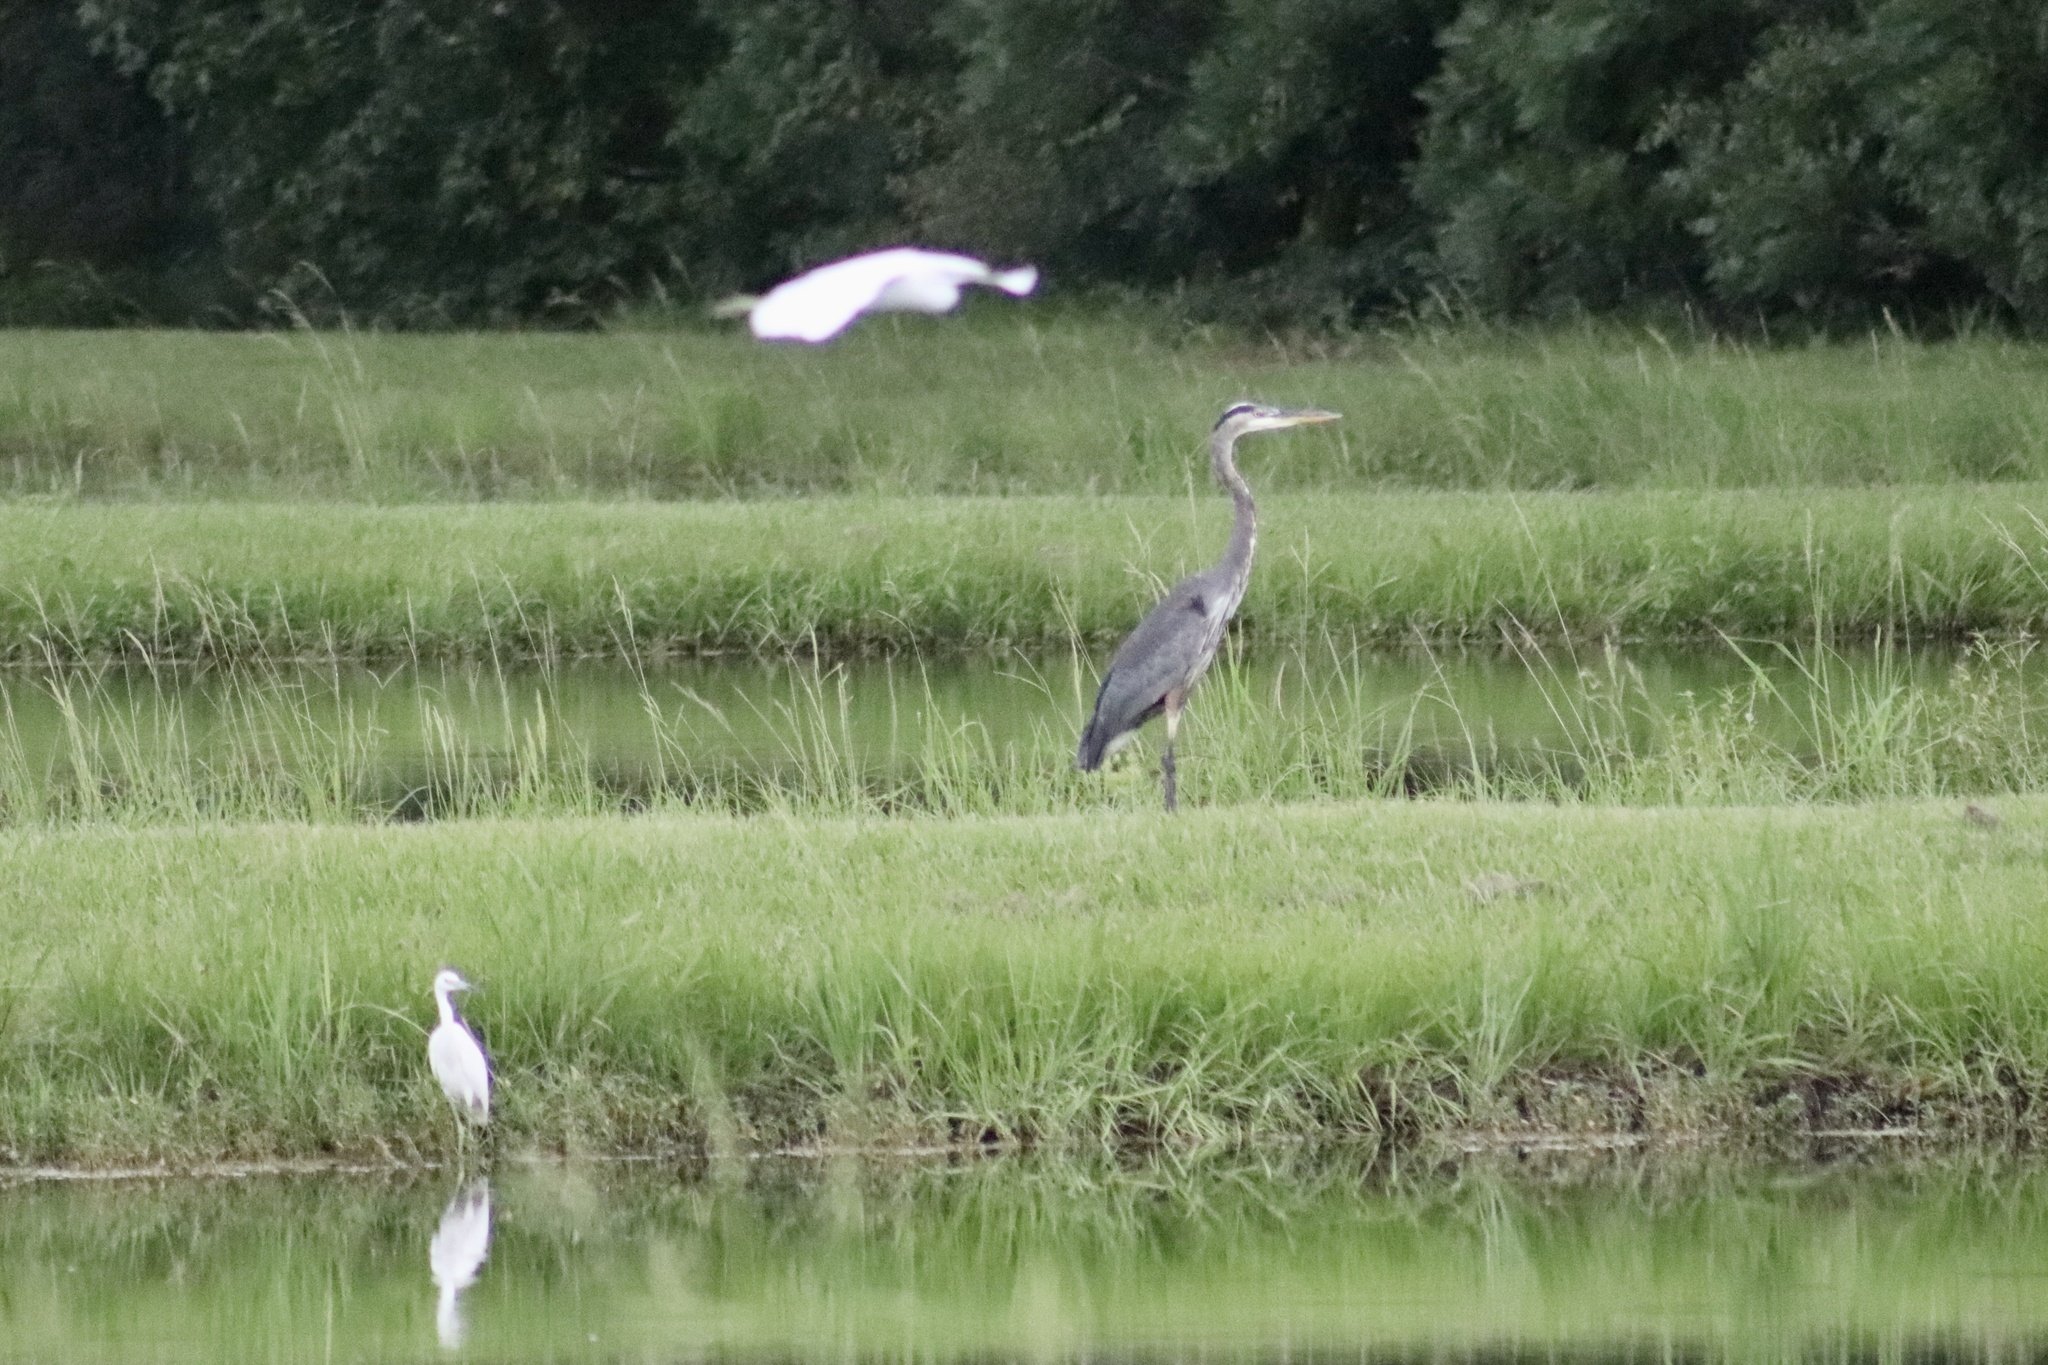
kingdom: Animalia
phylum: Chordata
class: Aves
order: Pelecaniformes
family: Ardeidae
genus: Ardea
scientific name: Ardea herodias
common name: Great blue heron
